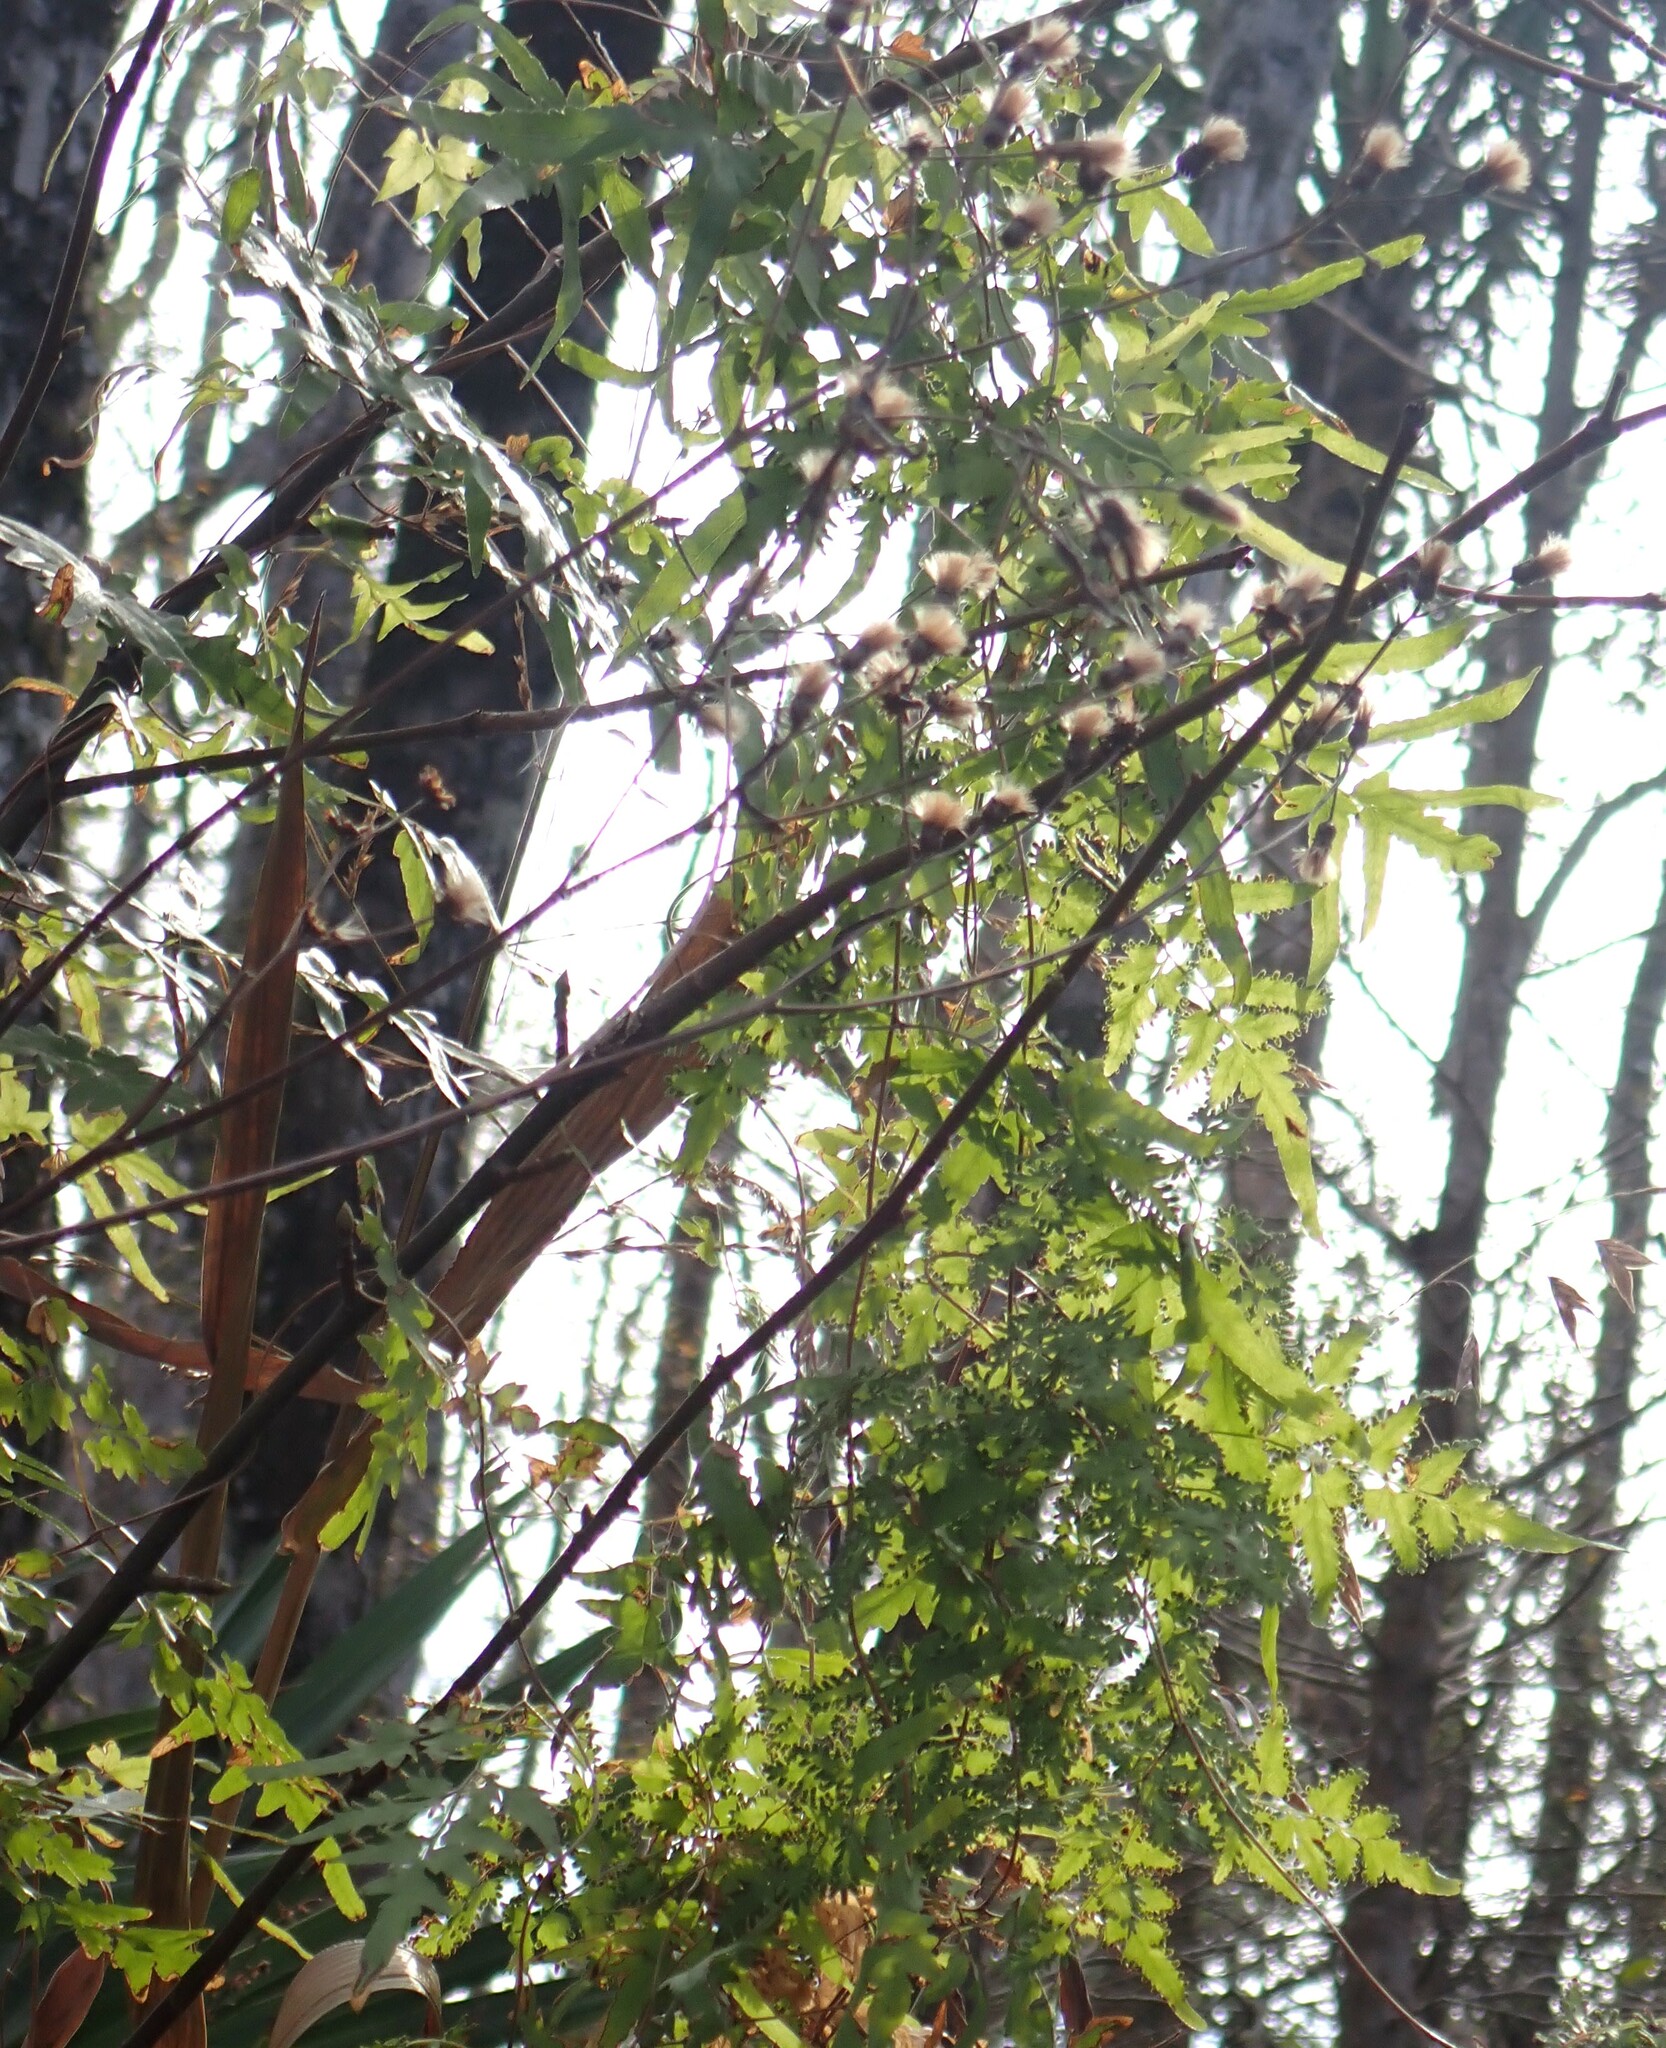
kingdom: Plantae
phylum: Tracheophyta
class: Polypodiopsida
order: Schizaeales
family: Lygodiaceae
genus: Lygodium
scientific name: Lygodium japonicum
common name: Japanese climbing fern
